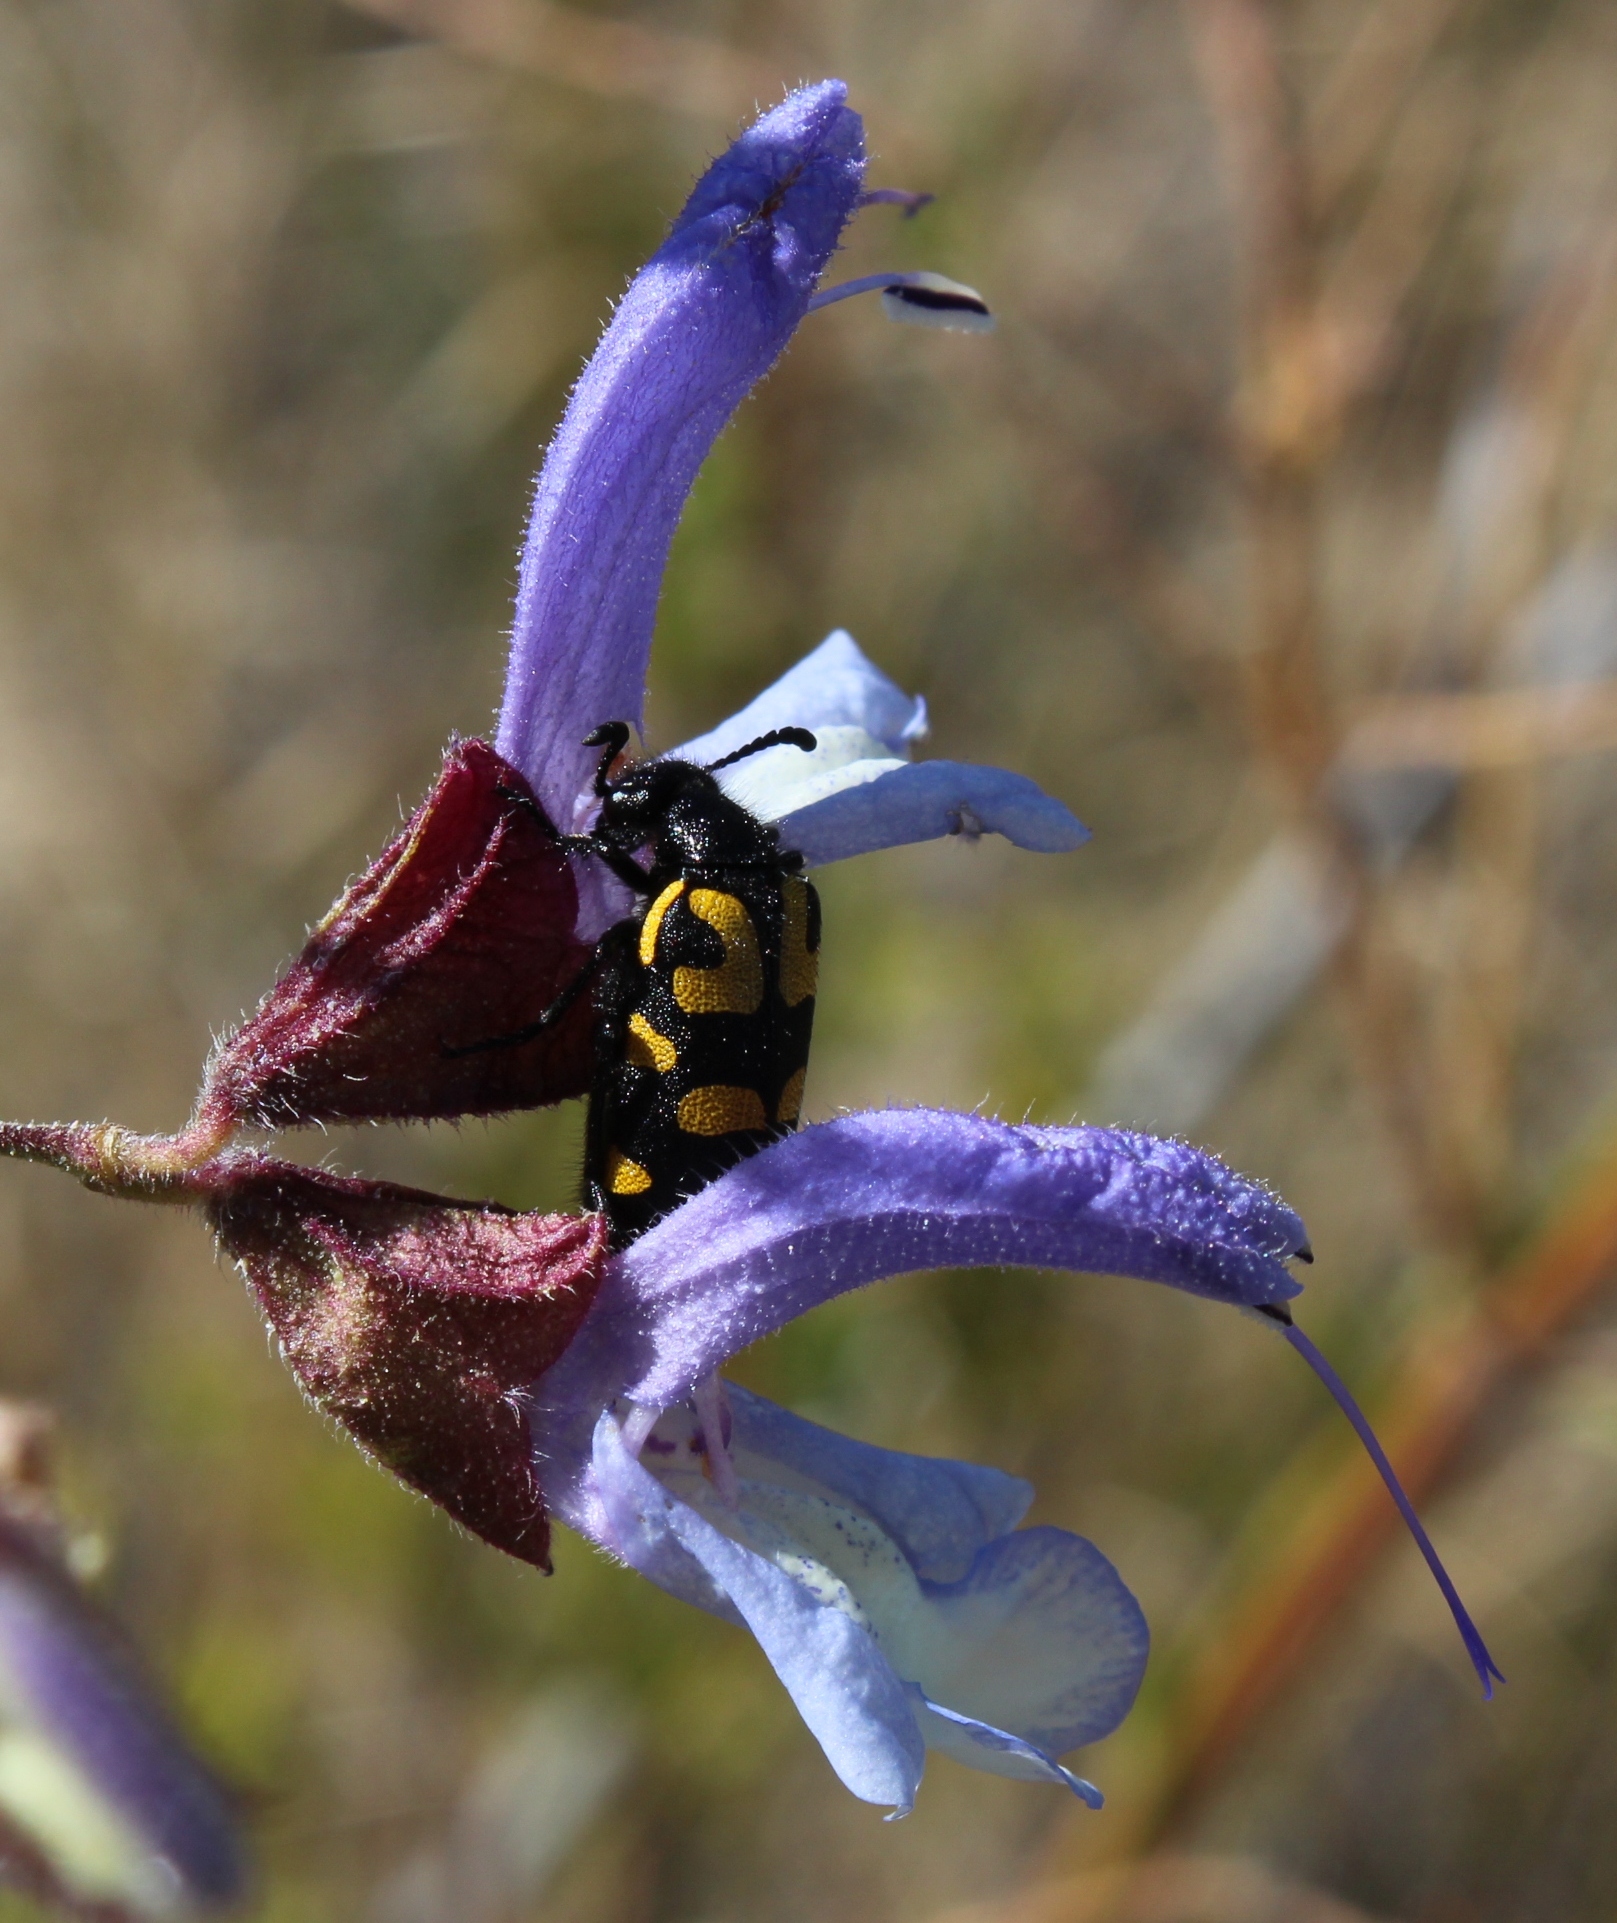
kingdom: Plantae
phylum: Tracheophyta
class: Magnoliopsida
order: Lamiales
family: Lamiaceae
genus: Salvia
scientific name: Salvia chamelaeagnea
